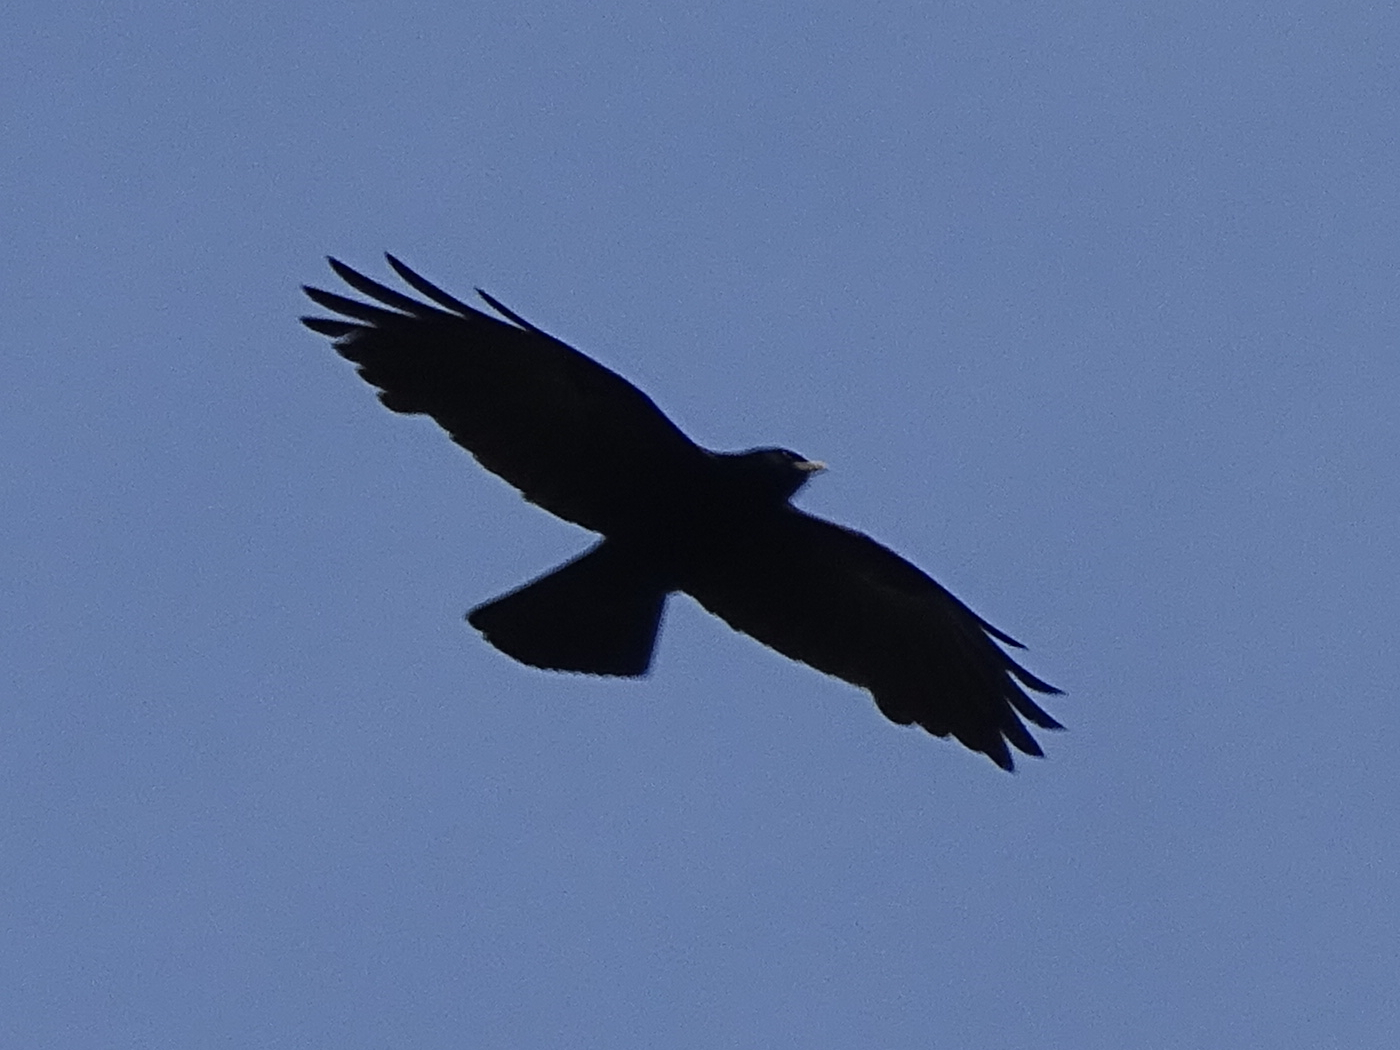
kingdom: Animalia
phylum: Chordata
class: Aves
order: Passeriformes
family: Corvidae
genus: Pyrrhocorax
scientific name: Pyrrhocorax graculus
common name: Alpine chough
